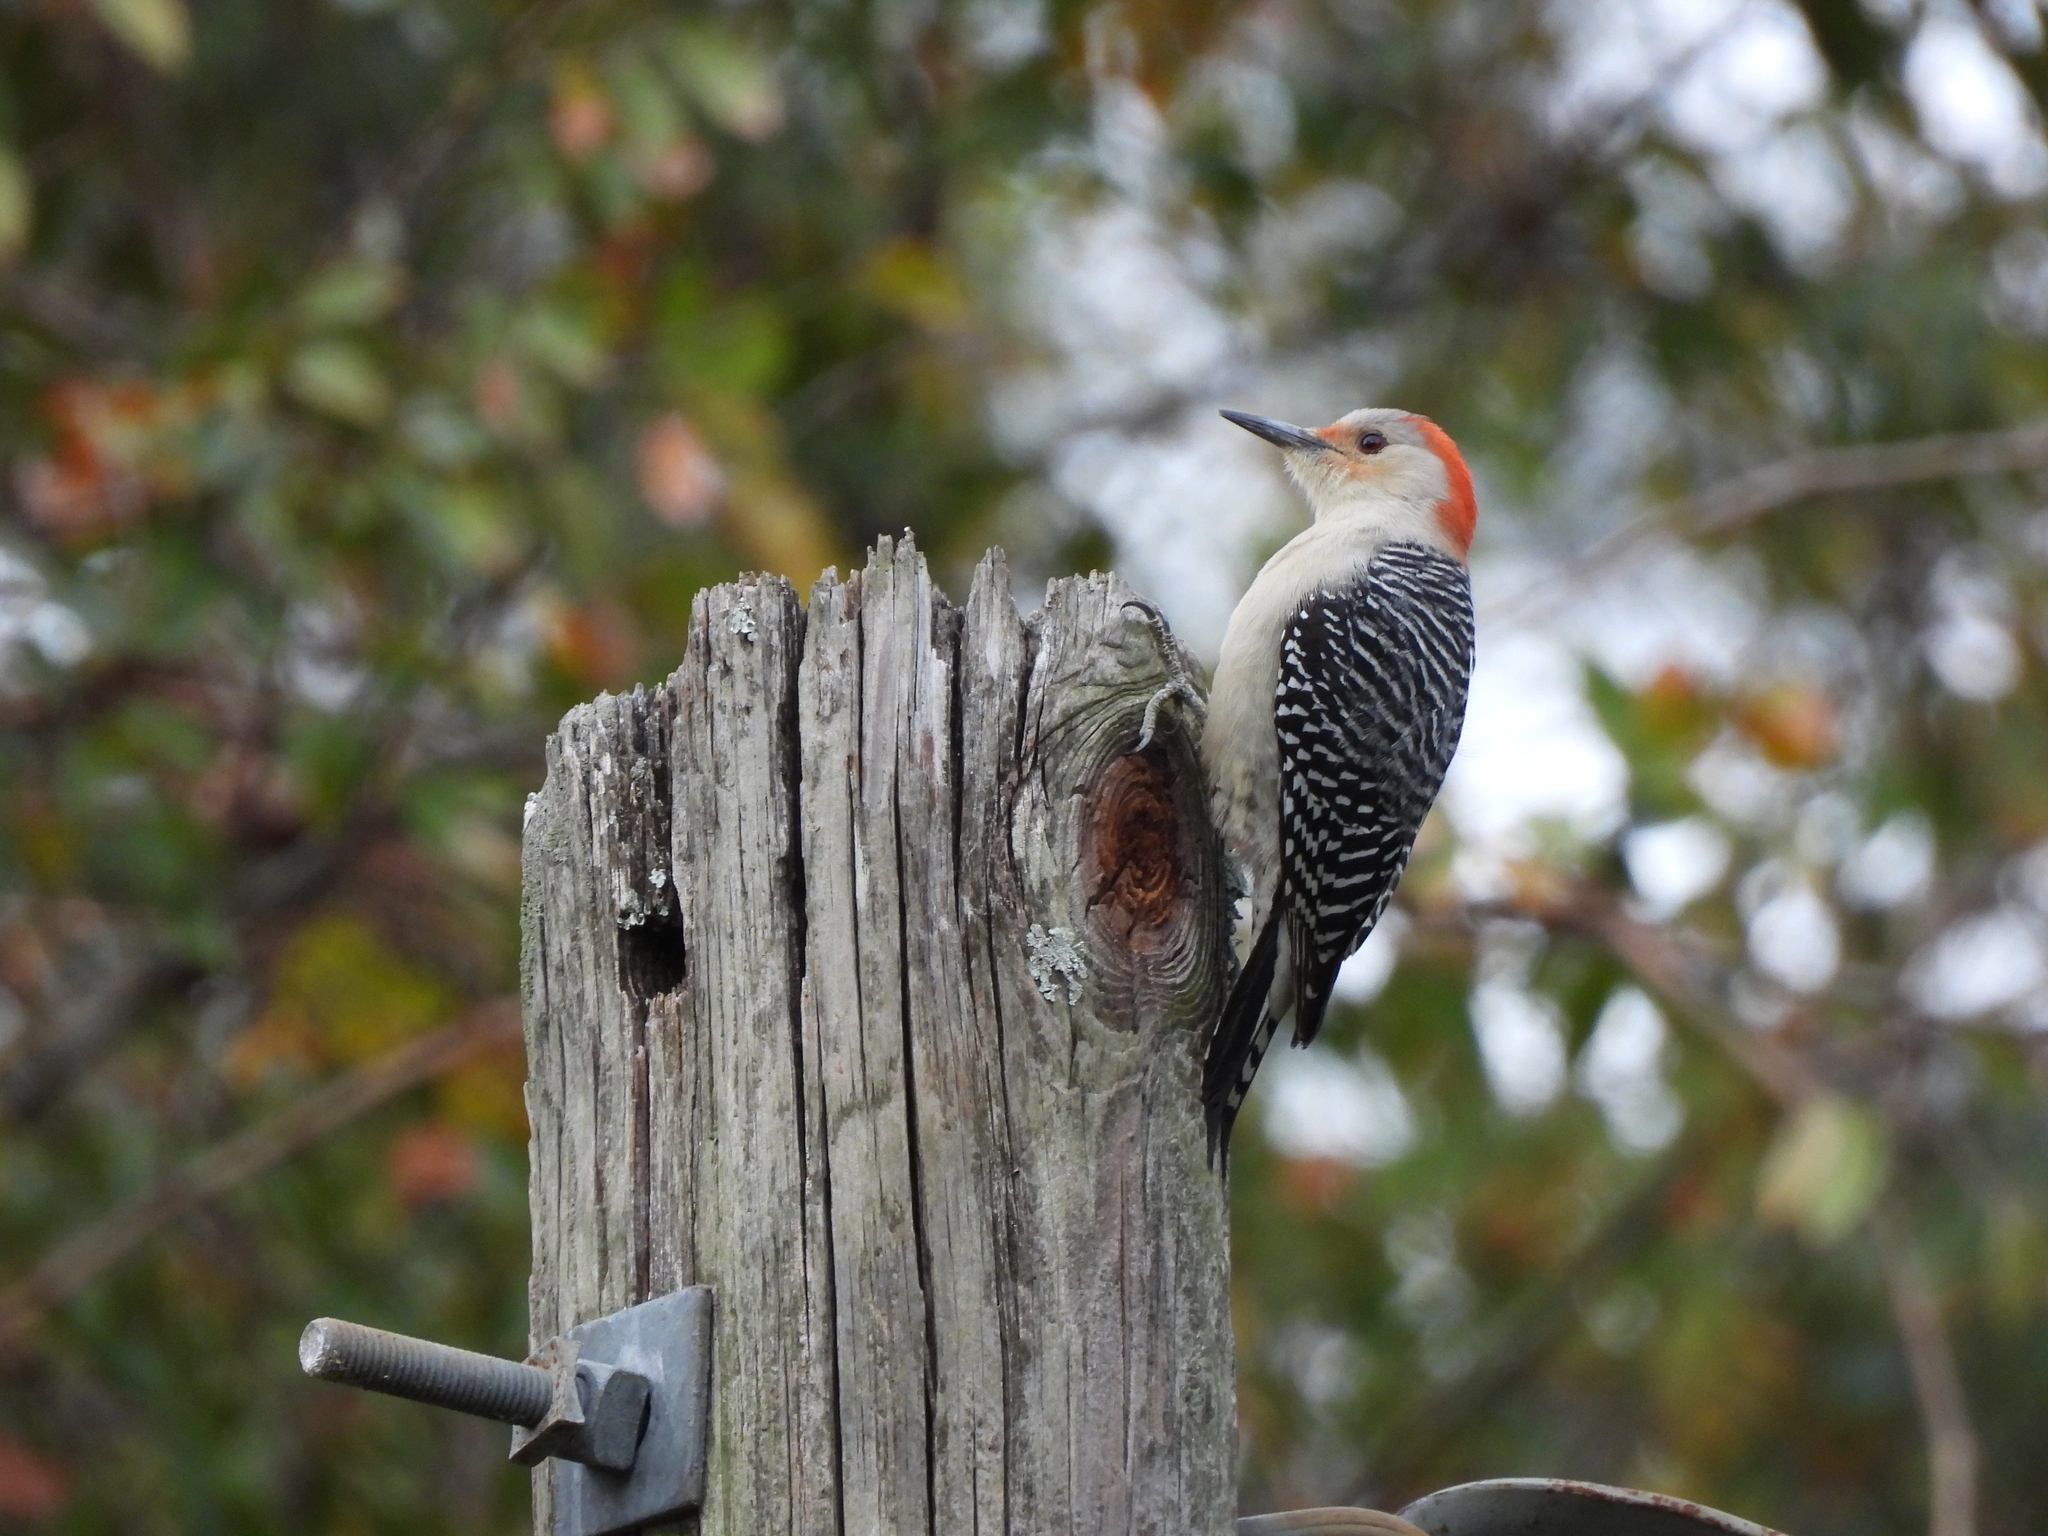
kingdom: Animalia
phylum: Chordata
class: Aves
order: Piciformes
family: Picidae
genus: Melanerpes
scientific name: Melanerpes carolinus
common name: Red-bellied woodpecker
